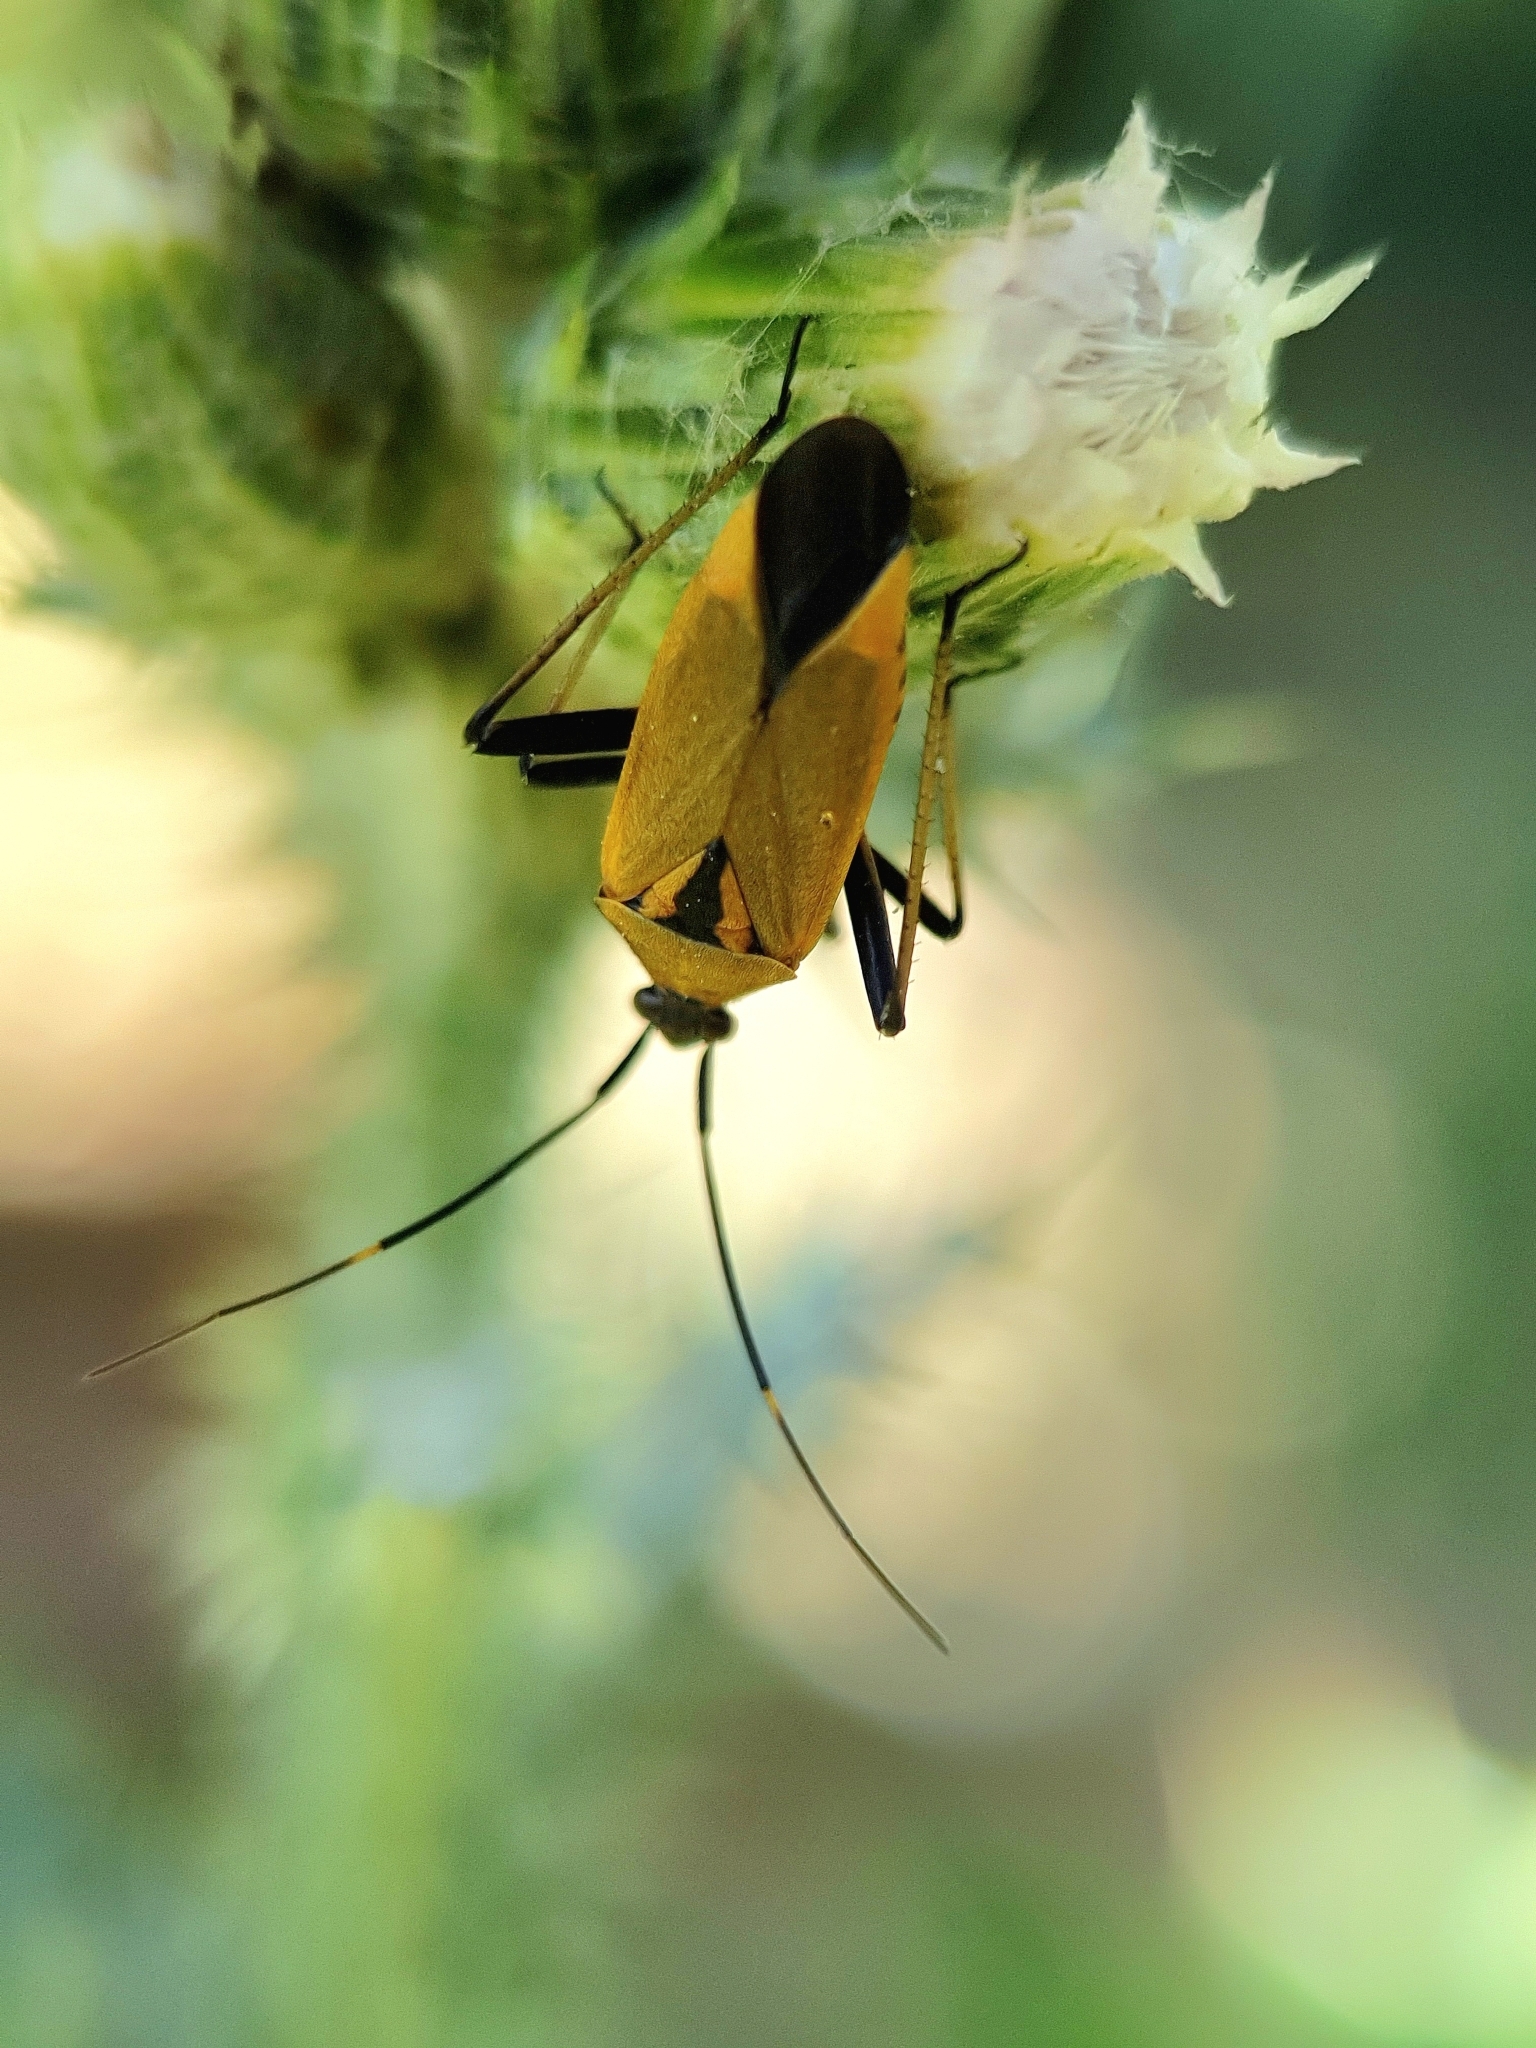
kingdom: Animalia
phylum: Arthropoda
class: Insecta
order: Hemiptera
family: Miridae
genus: Calocoris
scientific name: Calocoris nemoralis
